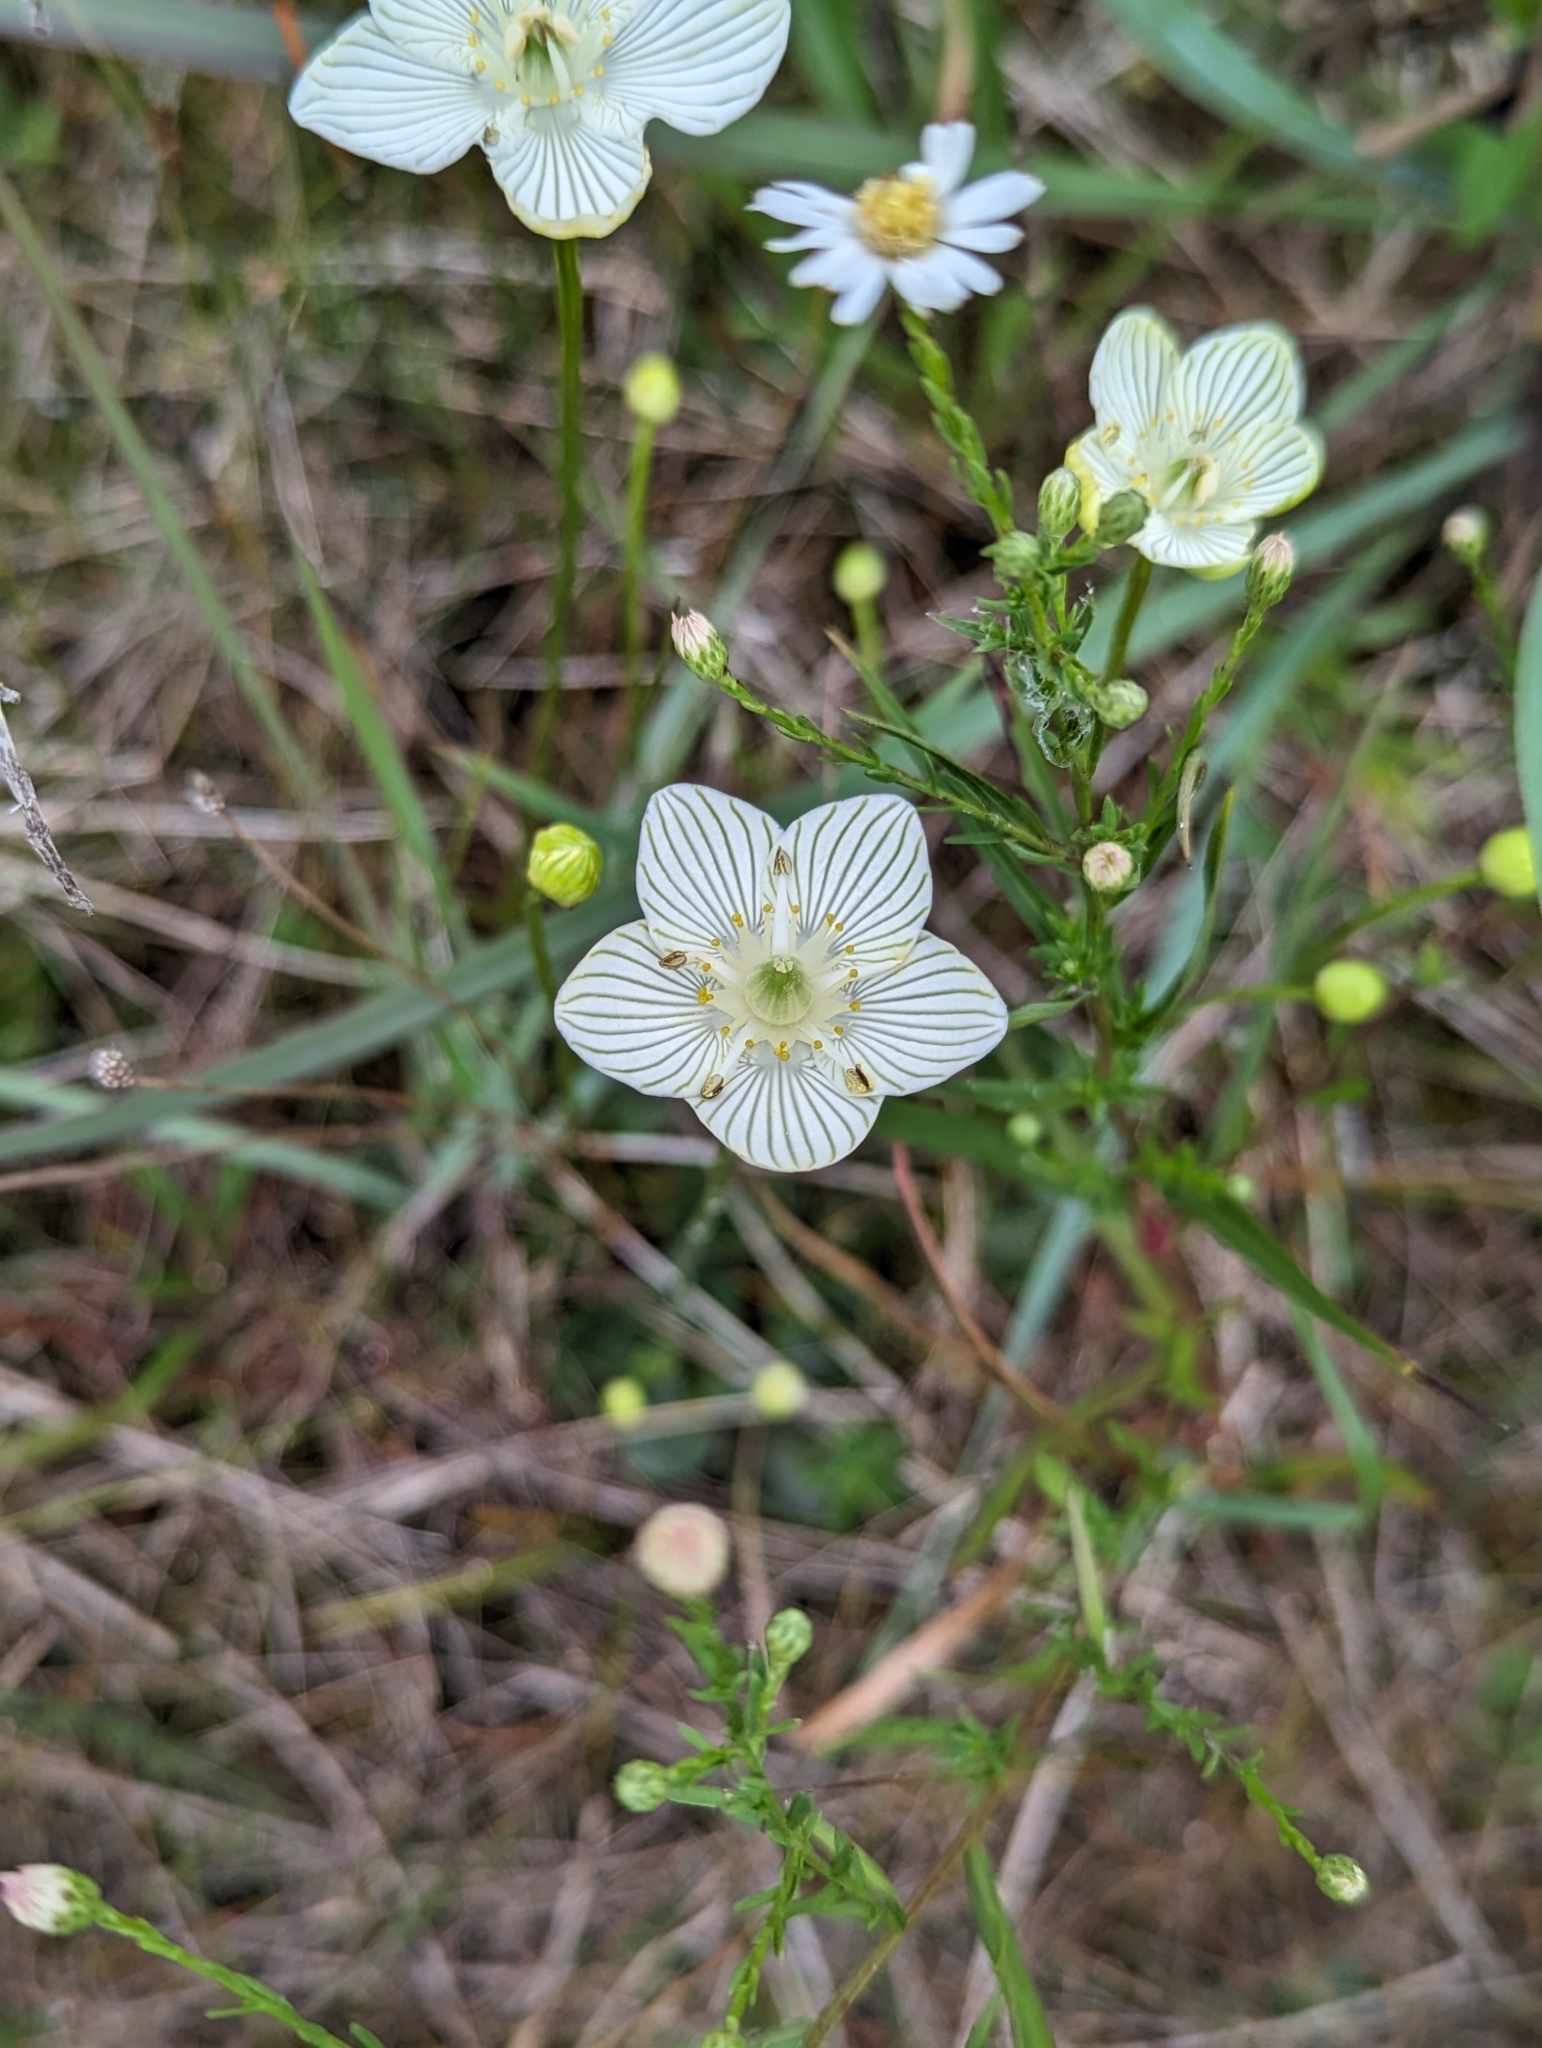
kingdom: Plantae
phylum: Tracheophyta
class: Magnoliopsida
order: Celastrales
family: Parnassiaceae
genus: Parnassia
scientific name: Parnassia glauca
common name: American grass-of-parnassus
